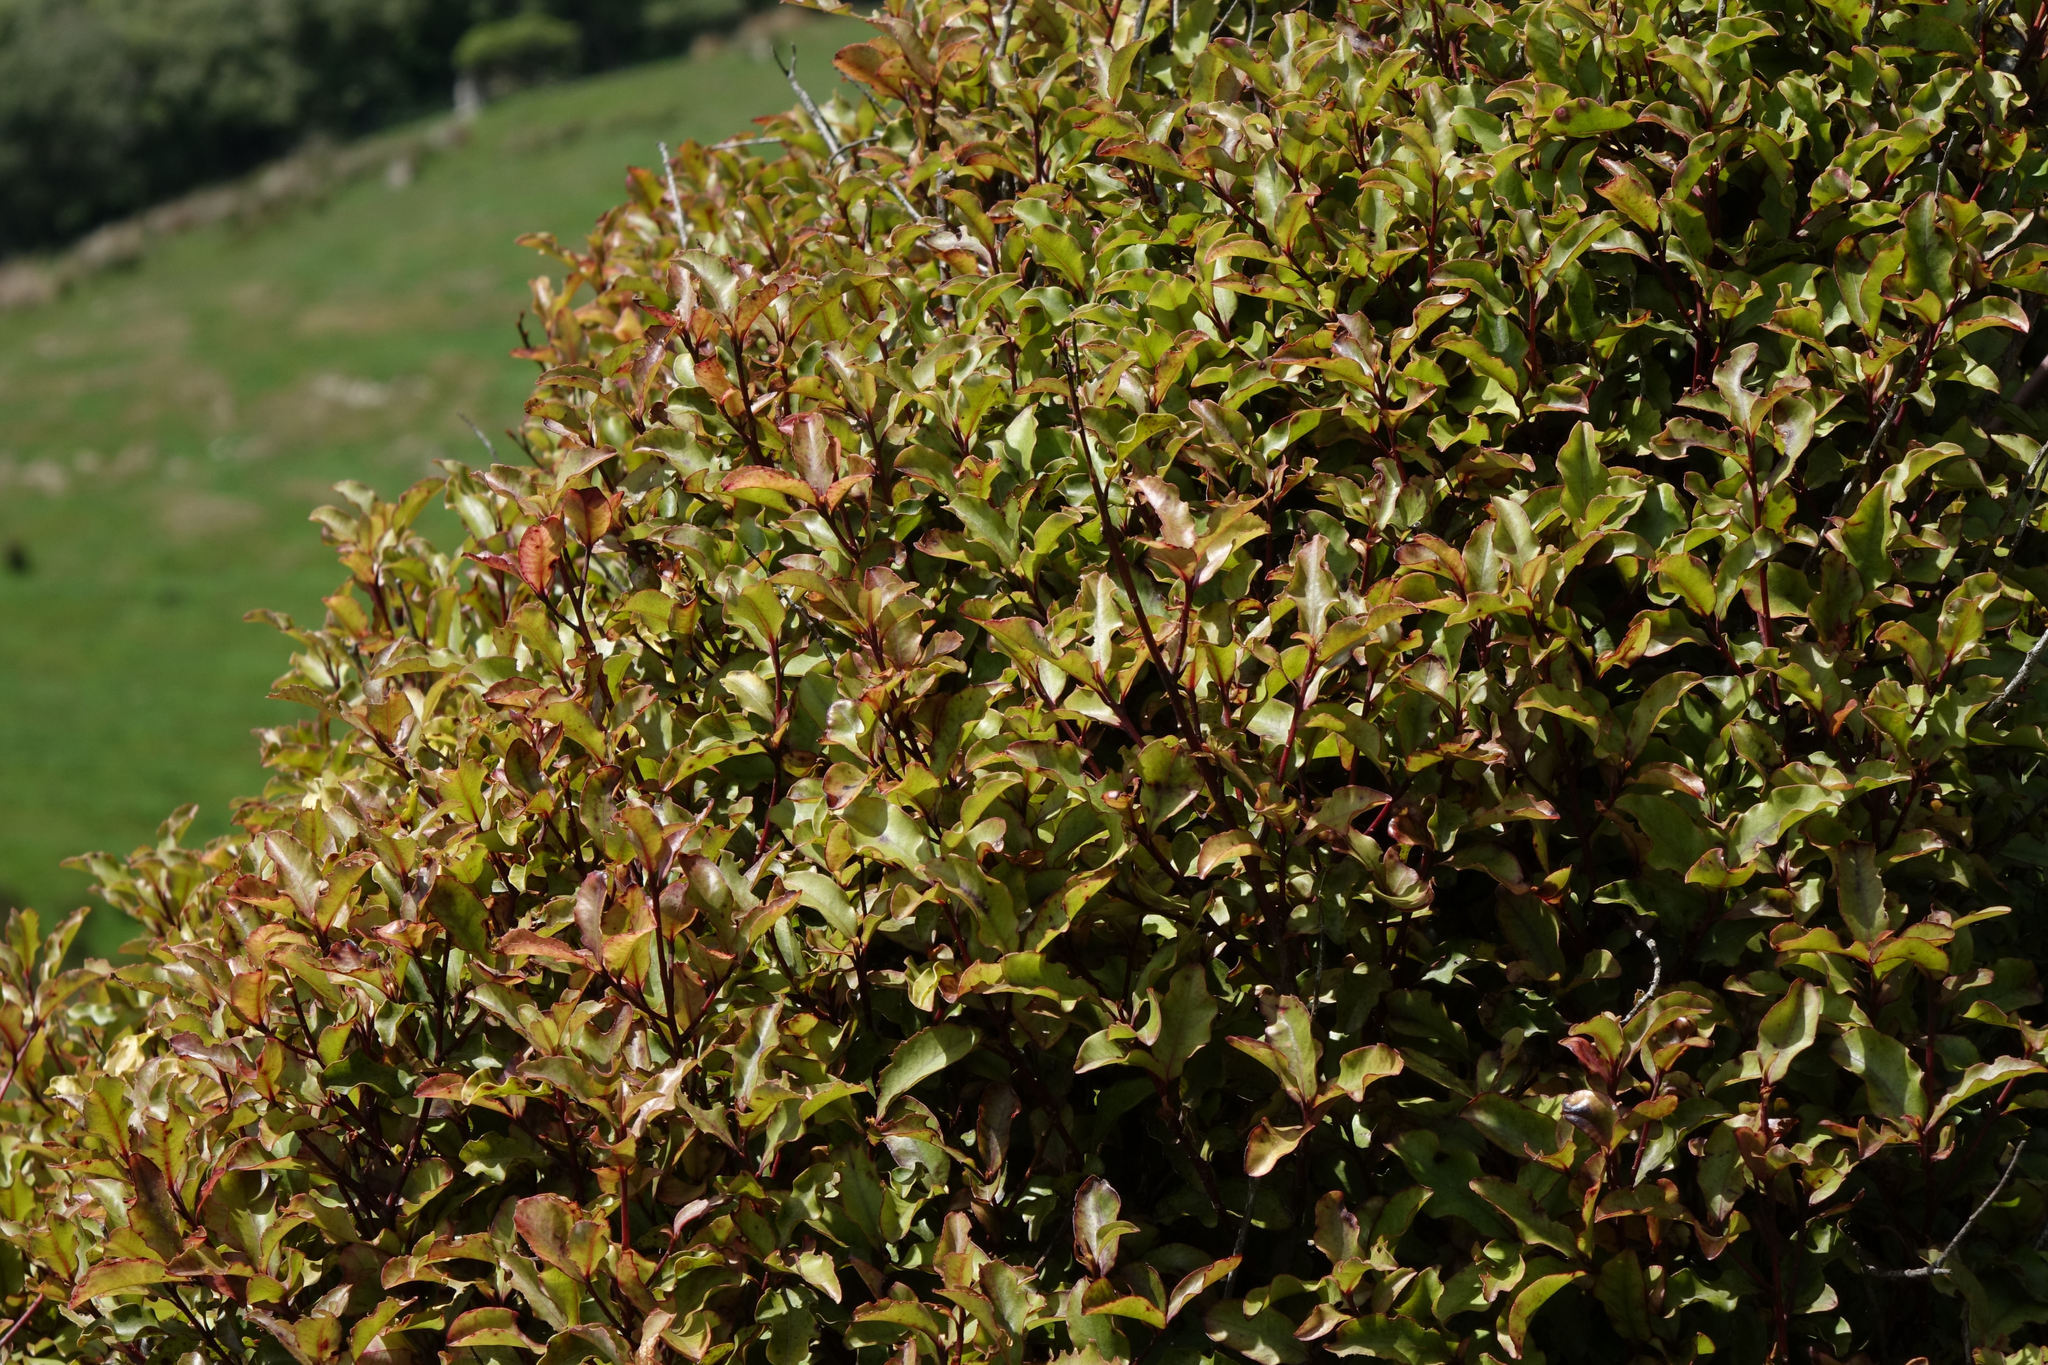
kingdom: Plantae
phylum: Tracheophyta
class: Magnoliopsida
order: Ericales
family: Primulaceae
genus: Myrsine
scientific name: Myrsine australis
